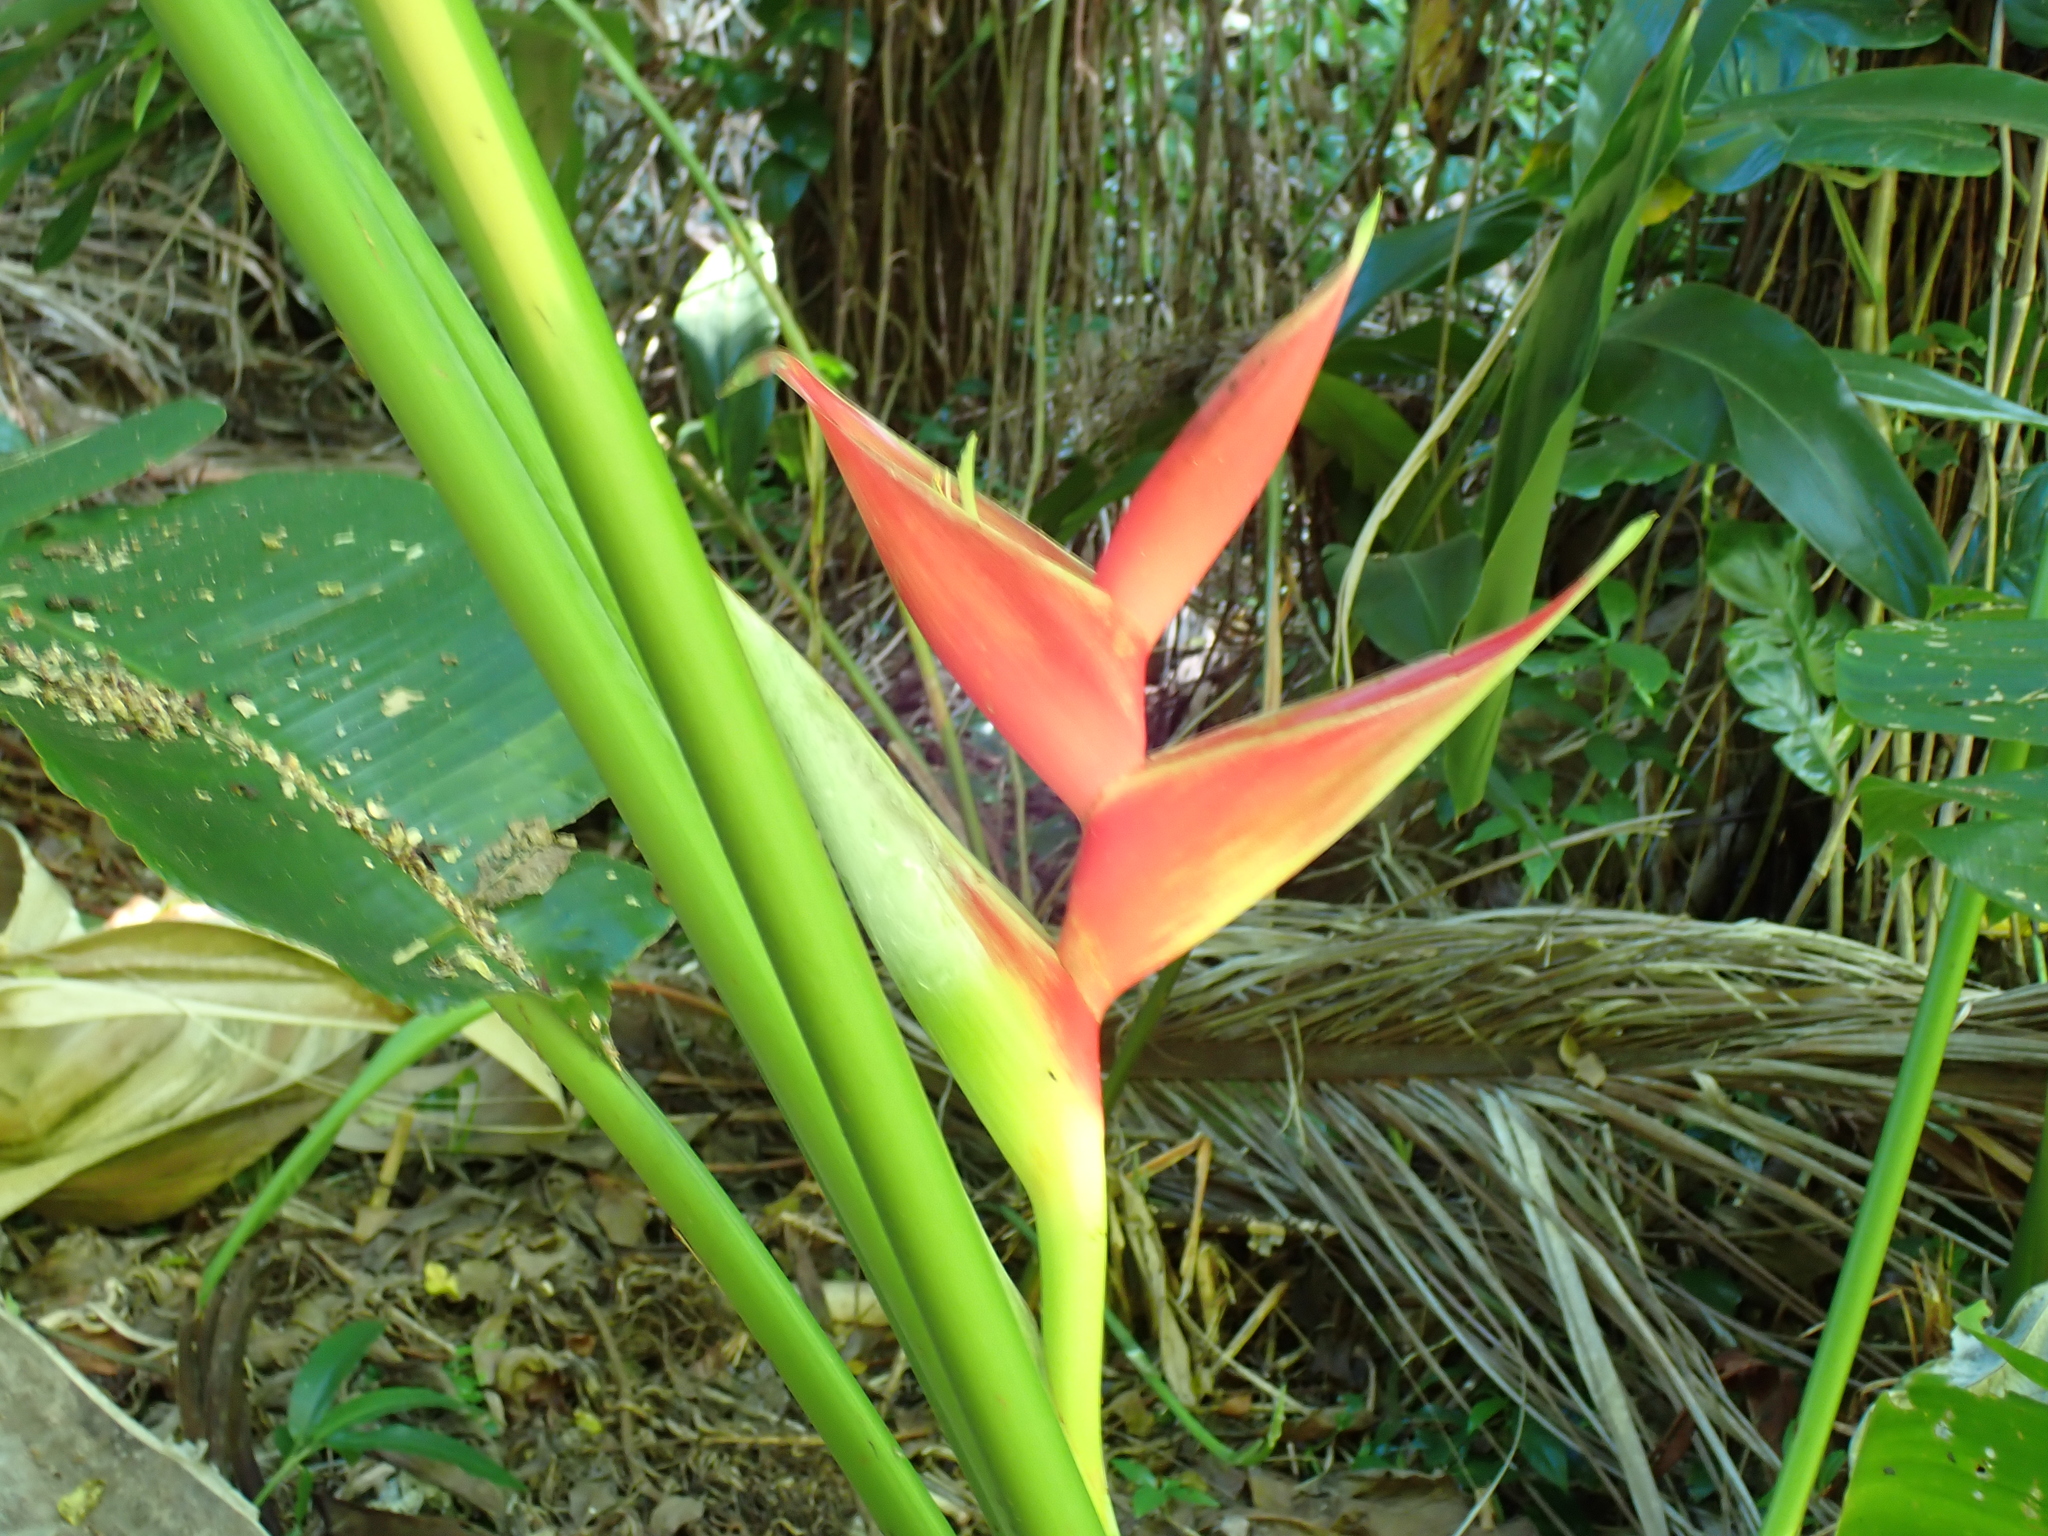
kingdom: Plantae
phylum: Tracheophyta
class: Liliopsida
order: Zingiberales
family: Heliconiaceae
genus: Heliconia
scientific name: Heliconia bihai
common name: Macaw flower
